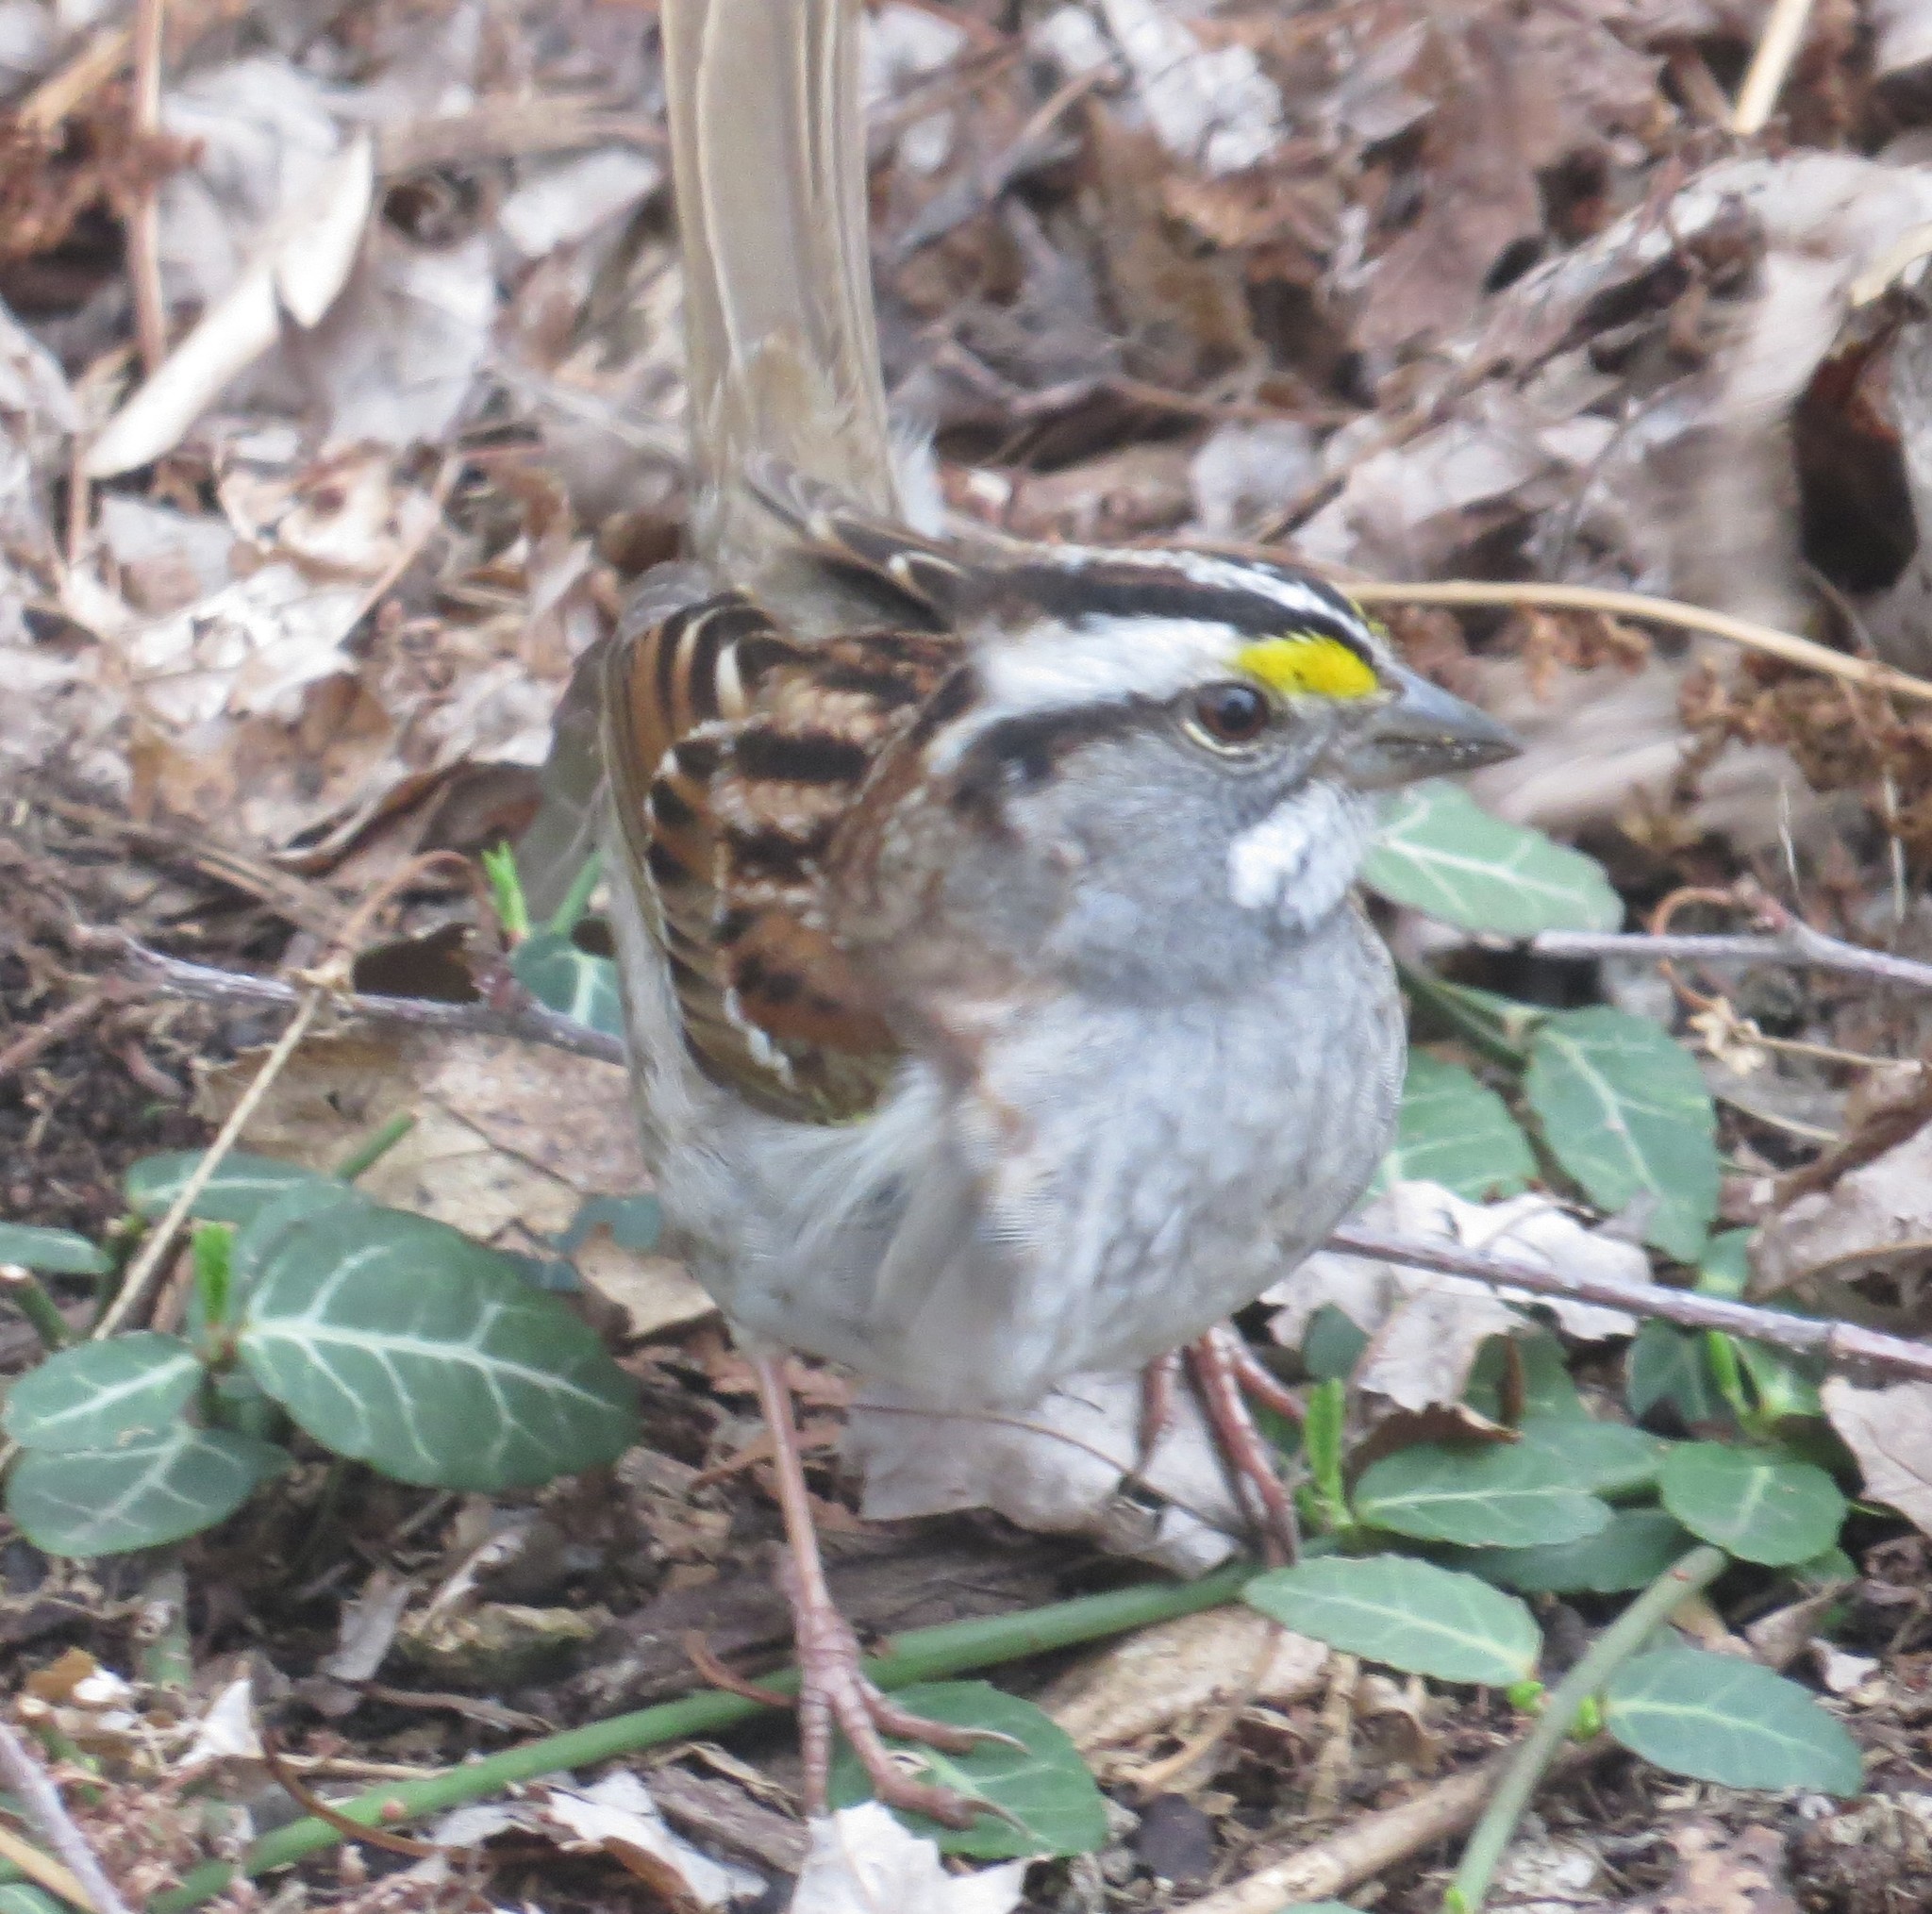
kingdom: Animalia
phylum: Chordata
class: Aves
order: Passeriformes
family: Passerellidae
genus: Zonotrichia
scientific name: Zonotrichia albicollis
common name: White-throated sparrow
